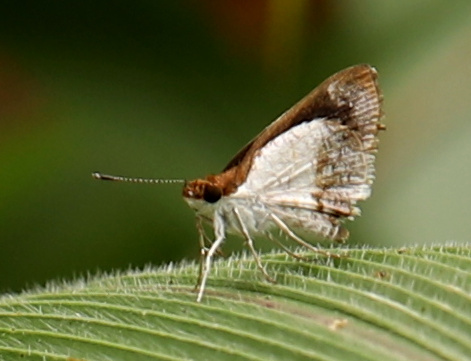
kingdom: Animalia
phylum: Arthropoda
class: Insecta
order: Lepidoptera
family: Hesperiidae
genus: Acleros
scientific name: Acleros mackenii
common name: Shade dart
